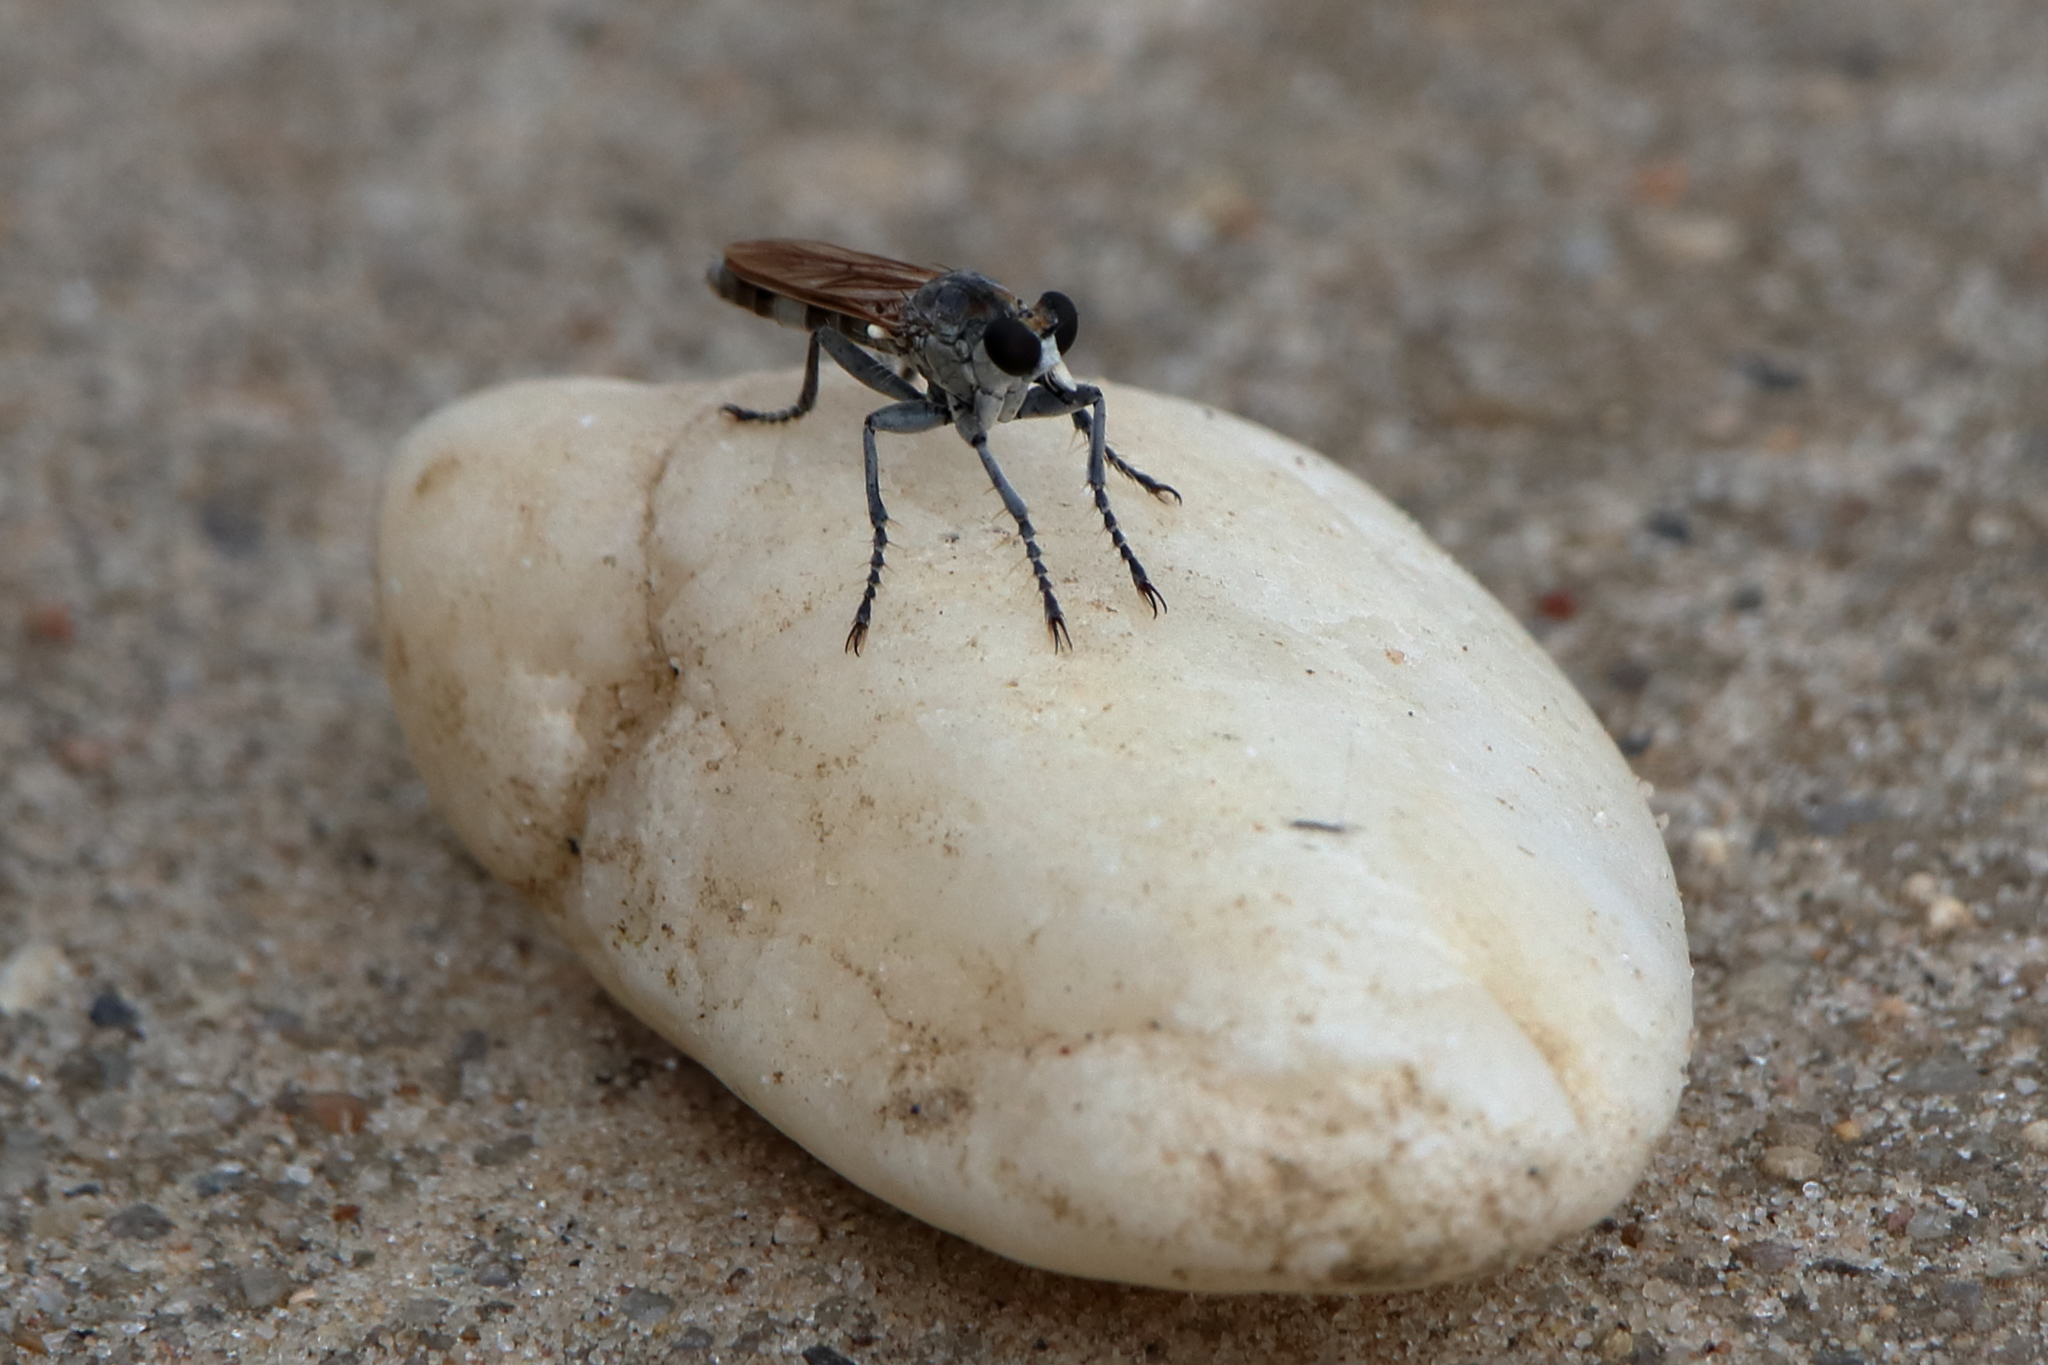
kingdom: Animalia
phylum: Arthropoda
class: Insecta
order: Diptera
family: Asilidae
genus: Stichopogon
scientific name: Stichopogon trifasciatus
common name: Three-banded robber fly
